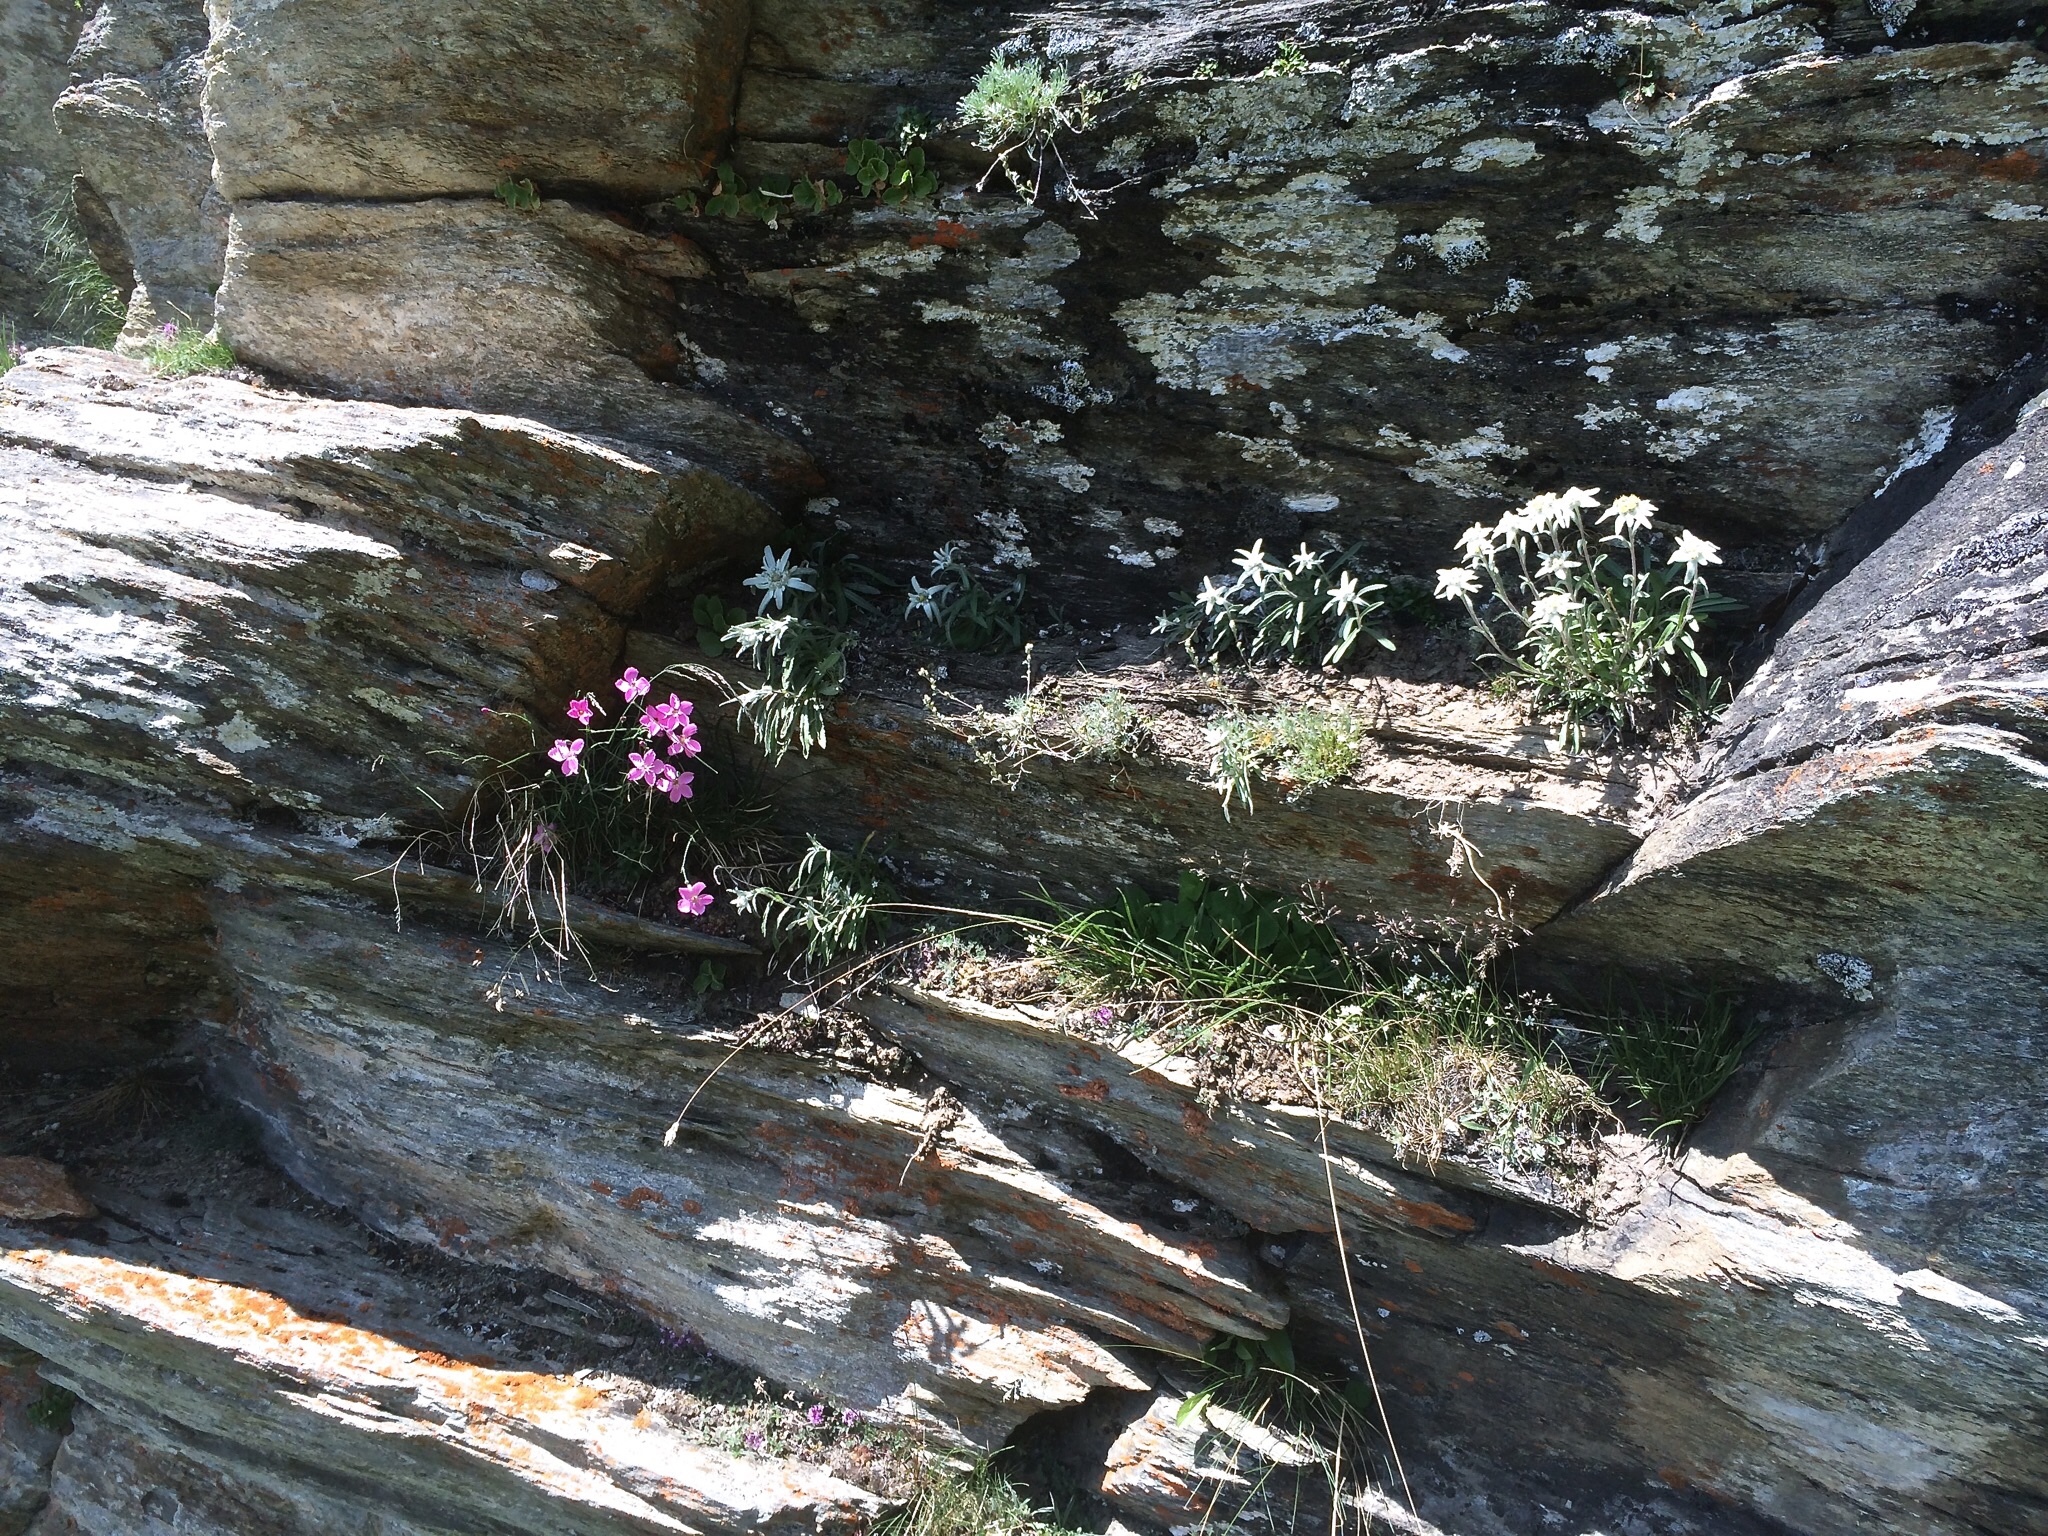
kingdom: Plantae
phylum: Tracheophyta
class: Magnoliopsida
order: Asterales
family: Asteraceae
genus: Leontopodium
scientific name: Leontopodium nivale
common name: Edelweiss
